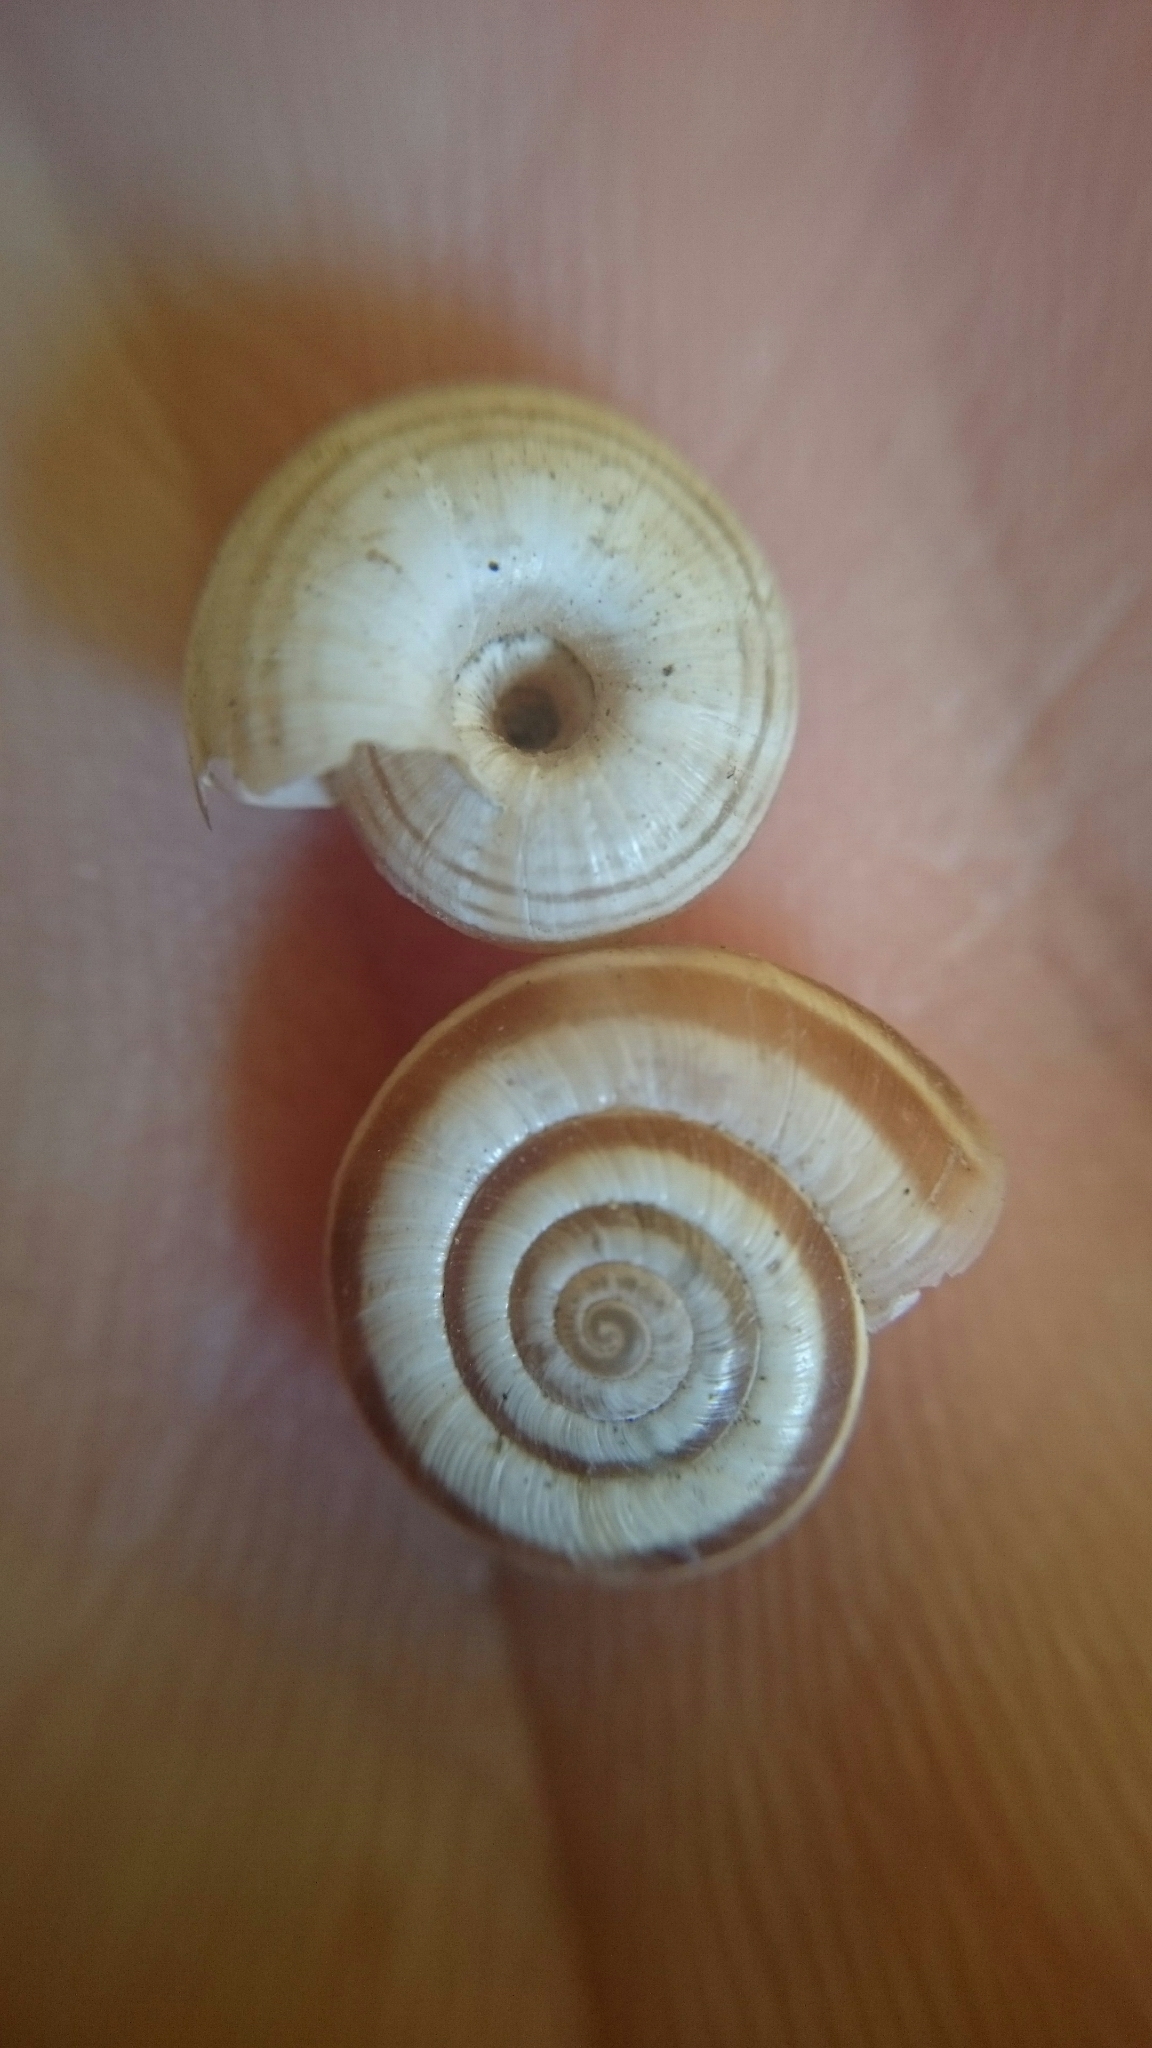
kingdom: Animalia
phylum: Mollusca
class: Gastropoda
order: Stylommatophora
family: Geomitridae
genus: Helicella
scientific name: Helicella itala
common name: Heath snail
